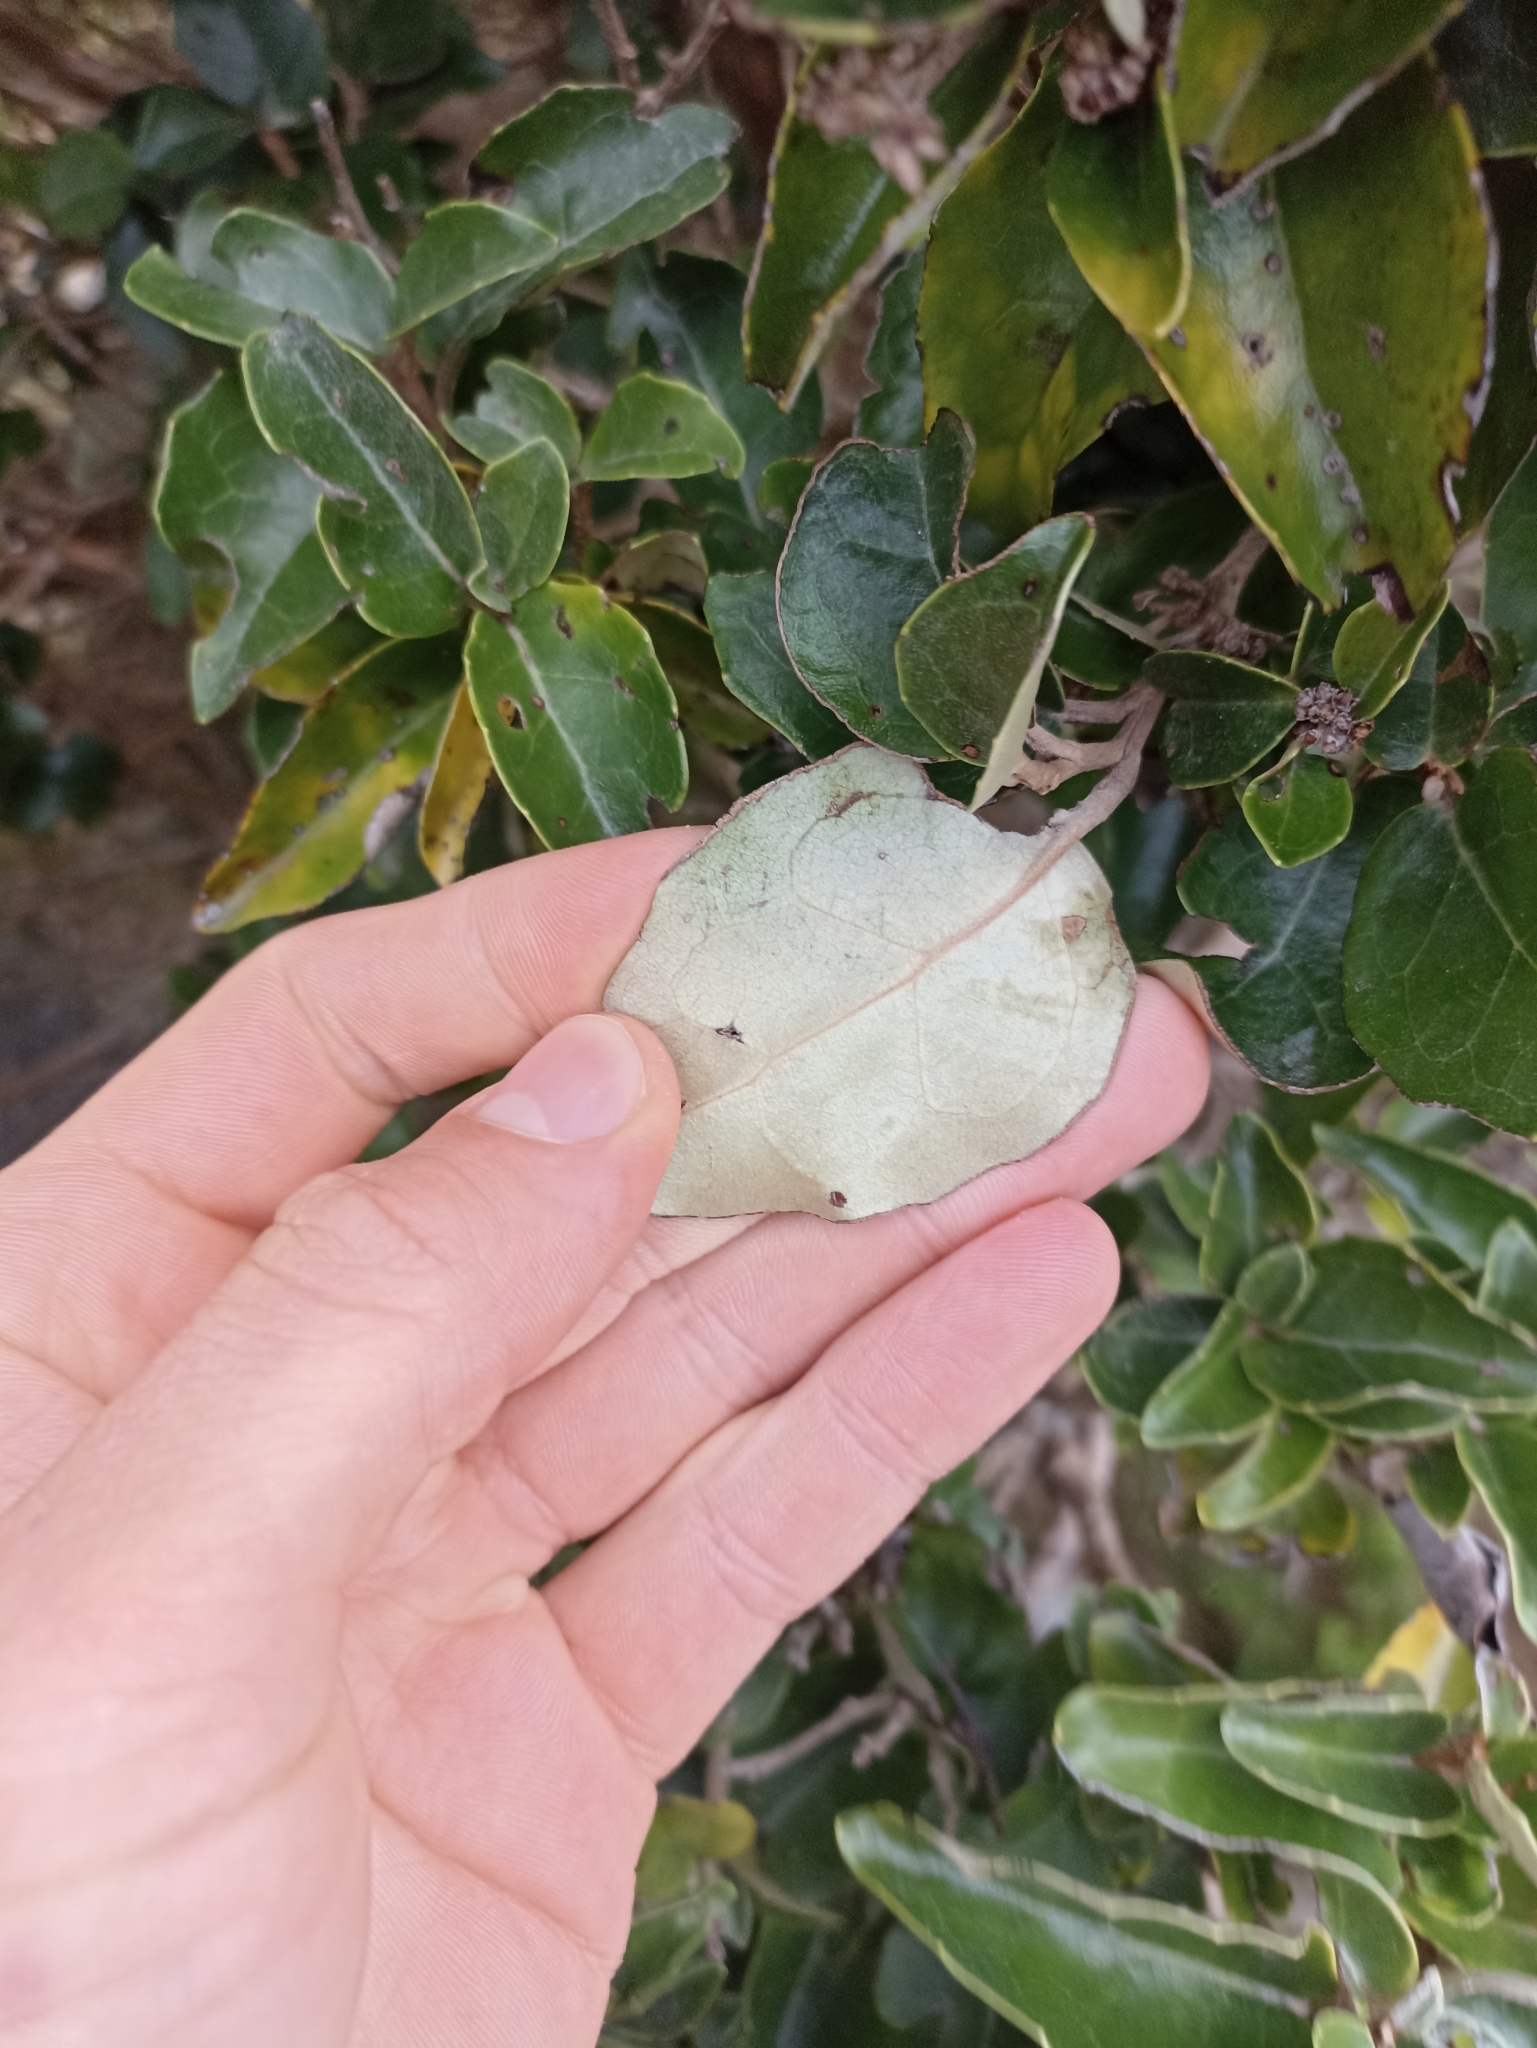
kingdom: Plantae
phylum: Tracheophyta
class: Magnoliopsida
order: Asterales
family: Asteraceae
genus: Olearia
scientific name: Olearia arborescens
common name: Glossy tree daisy
